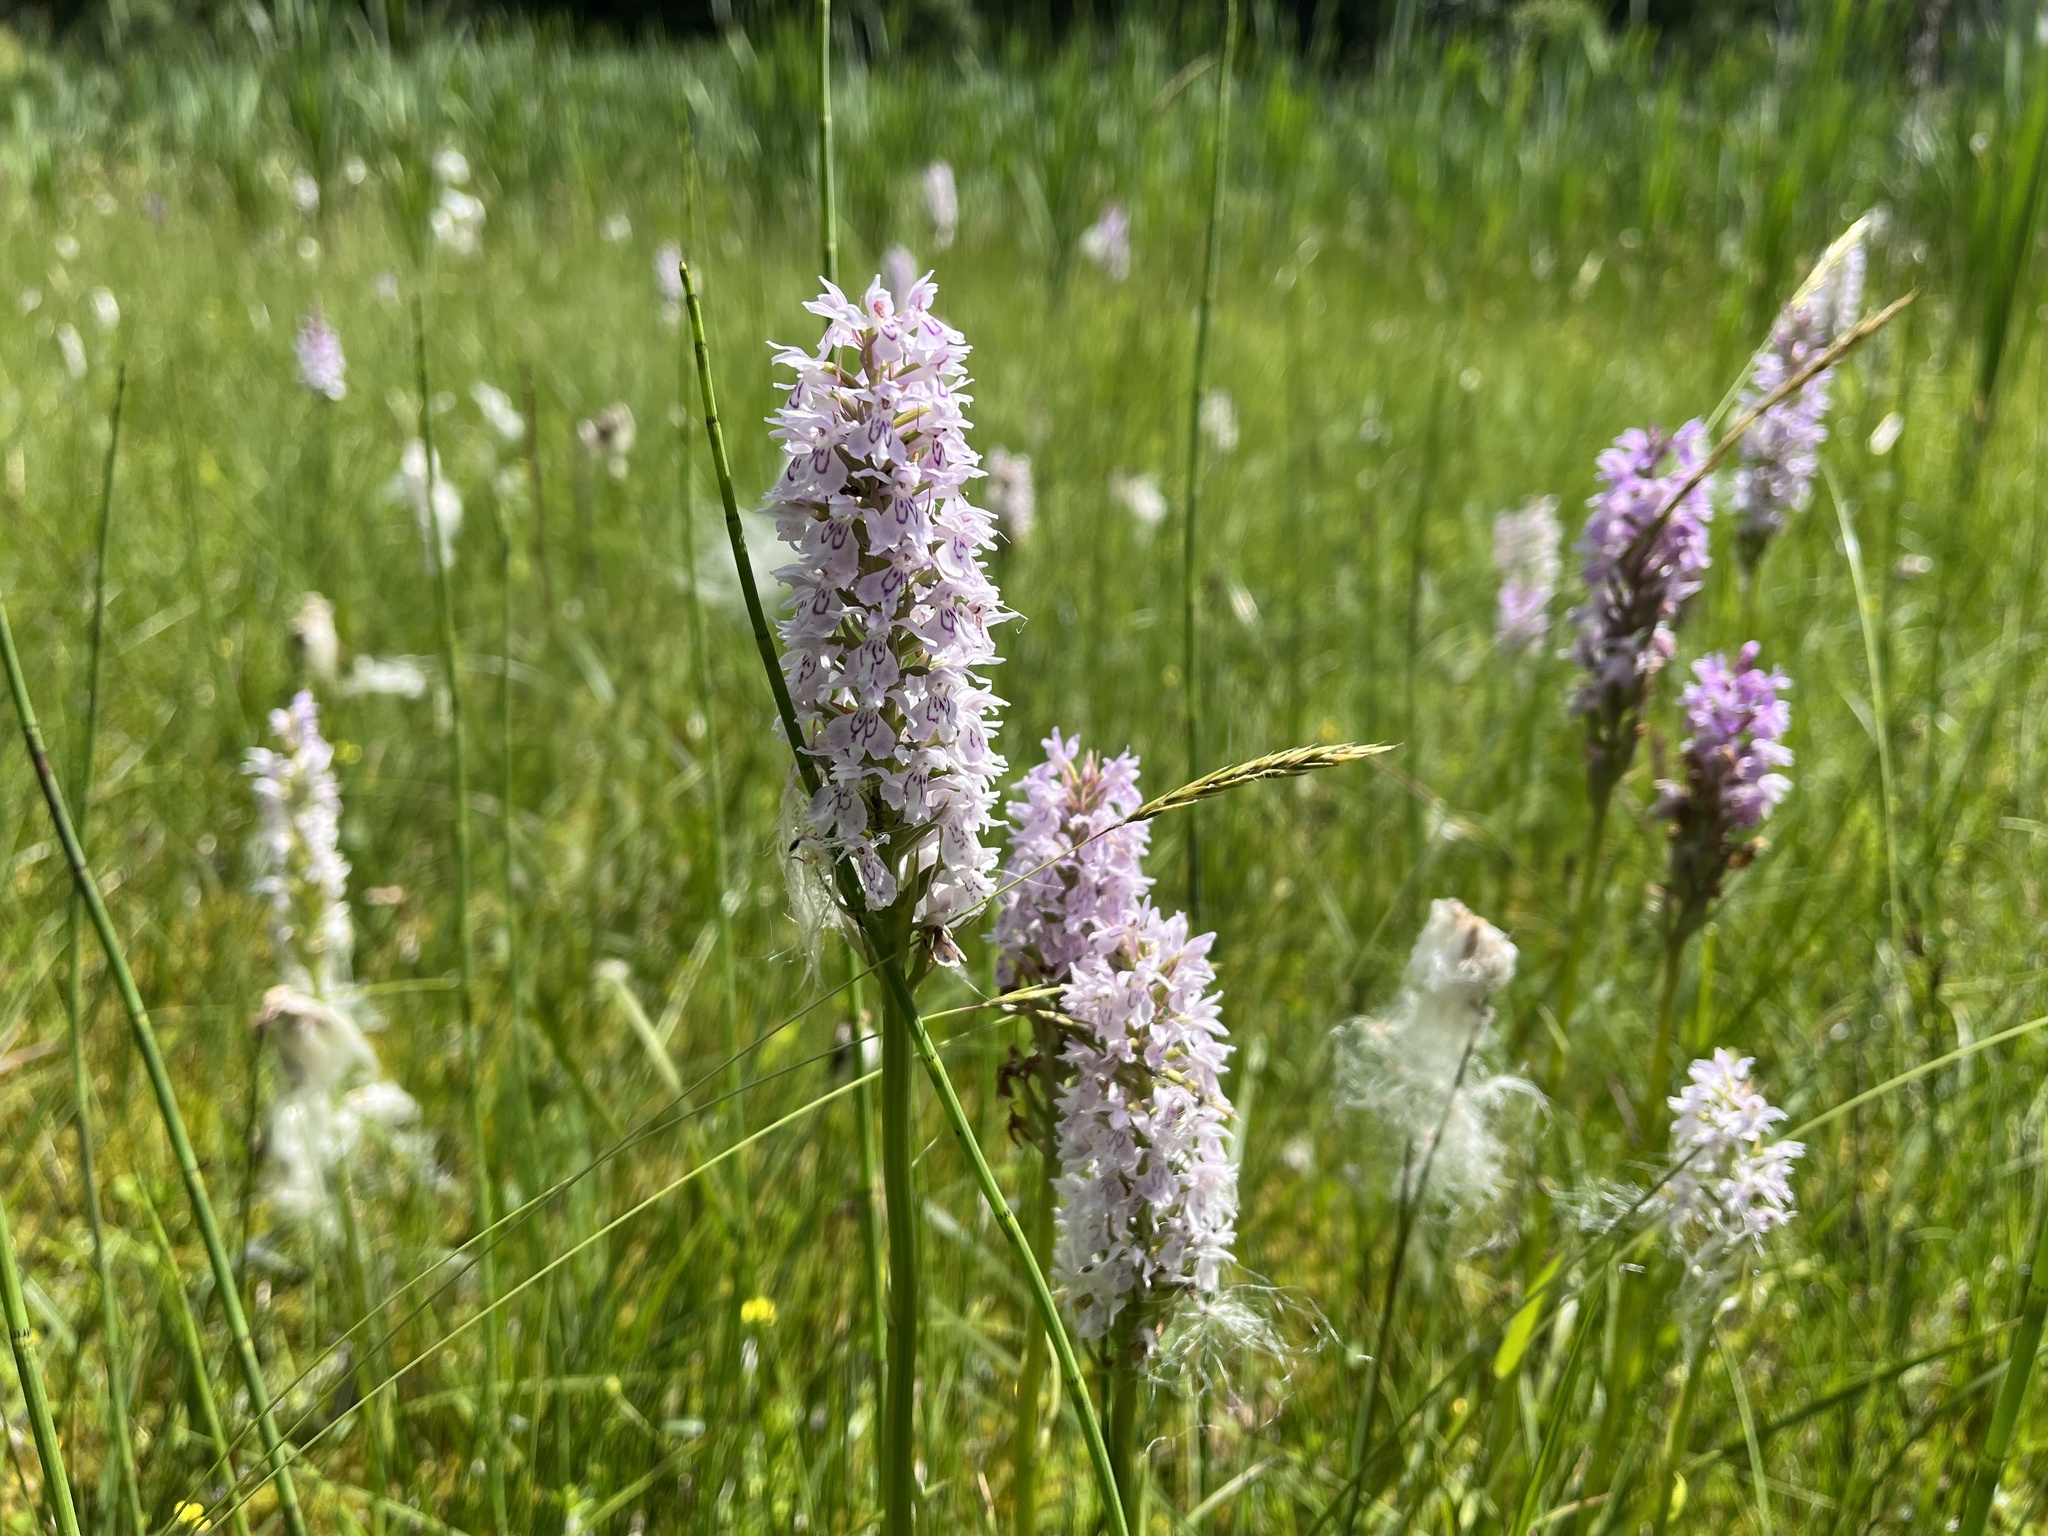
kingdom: Plantae
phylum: Tracheophyta
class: Liliopsida
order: Asparagales
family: Orchidaceae
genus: Dactylorhiza
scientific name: Dactylorhiza maculata
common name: Heath spotted-orchid
